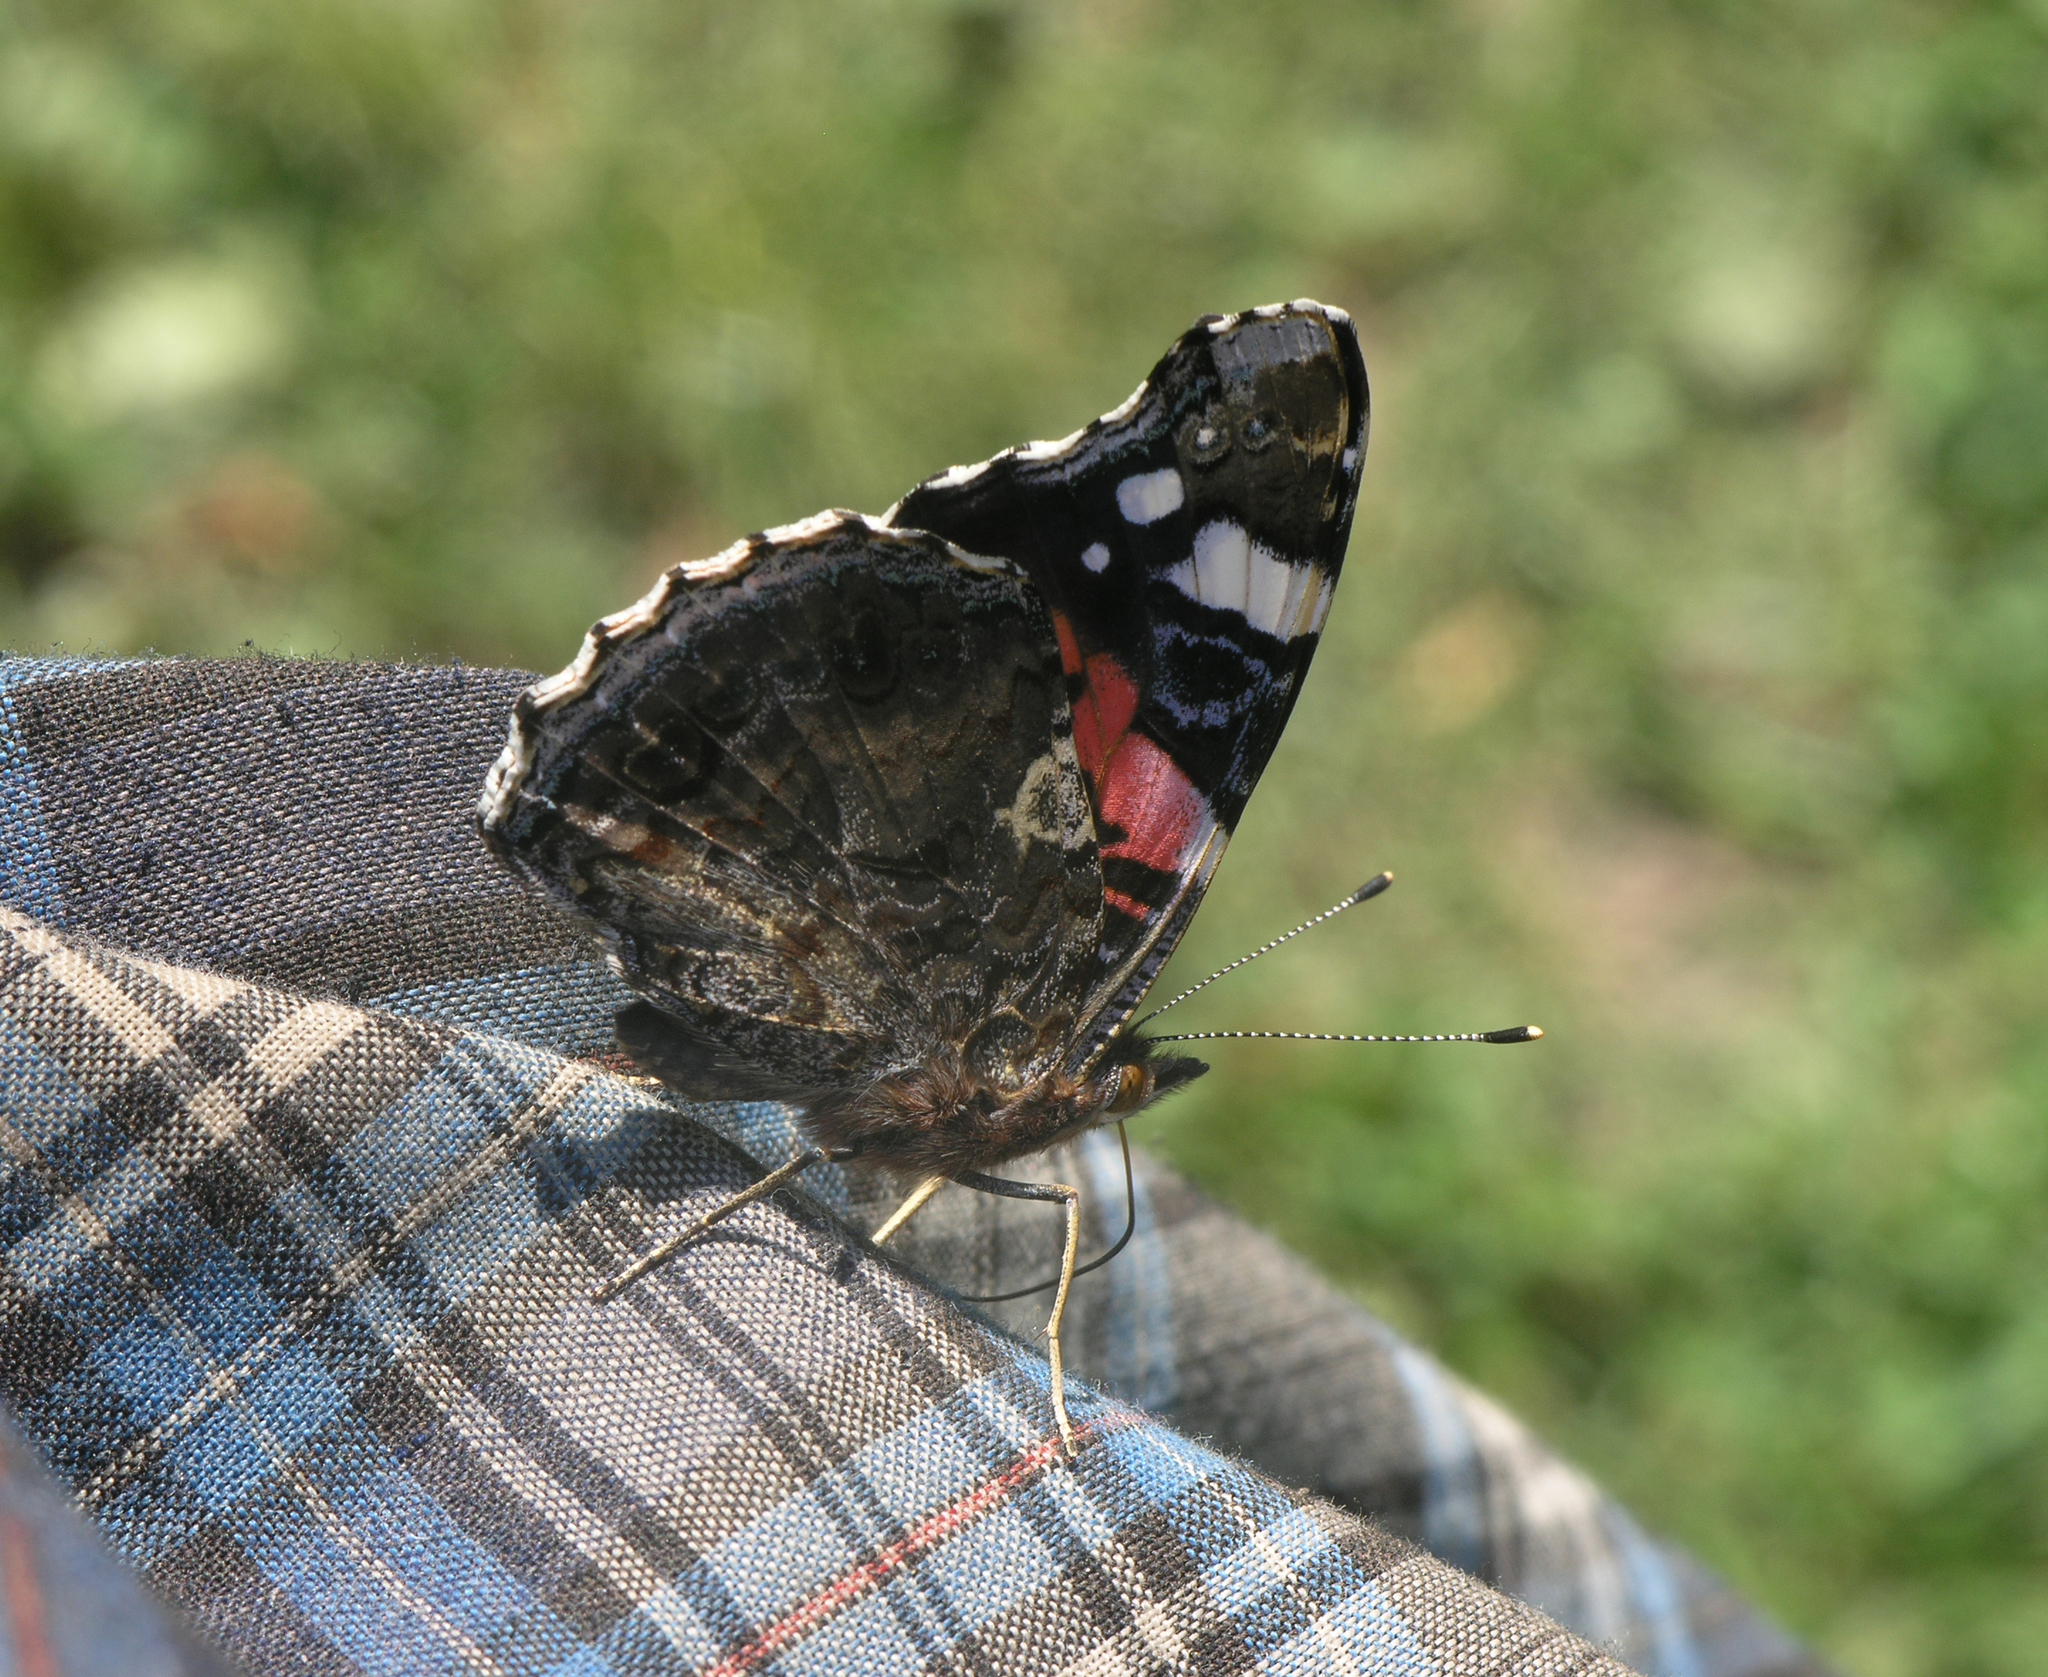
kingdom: Animalia
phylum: Arthropoda
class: Insecta
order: Lepidoptera
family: Nymphalidae
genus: Vanessa
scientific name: Vanessa atalanta
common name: Red admiral
